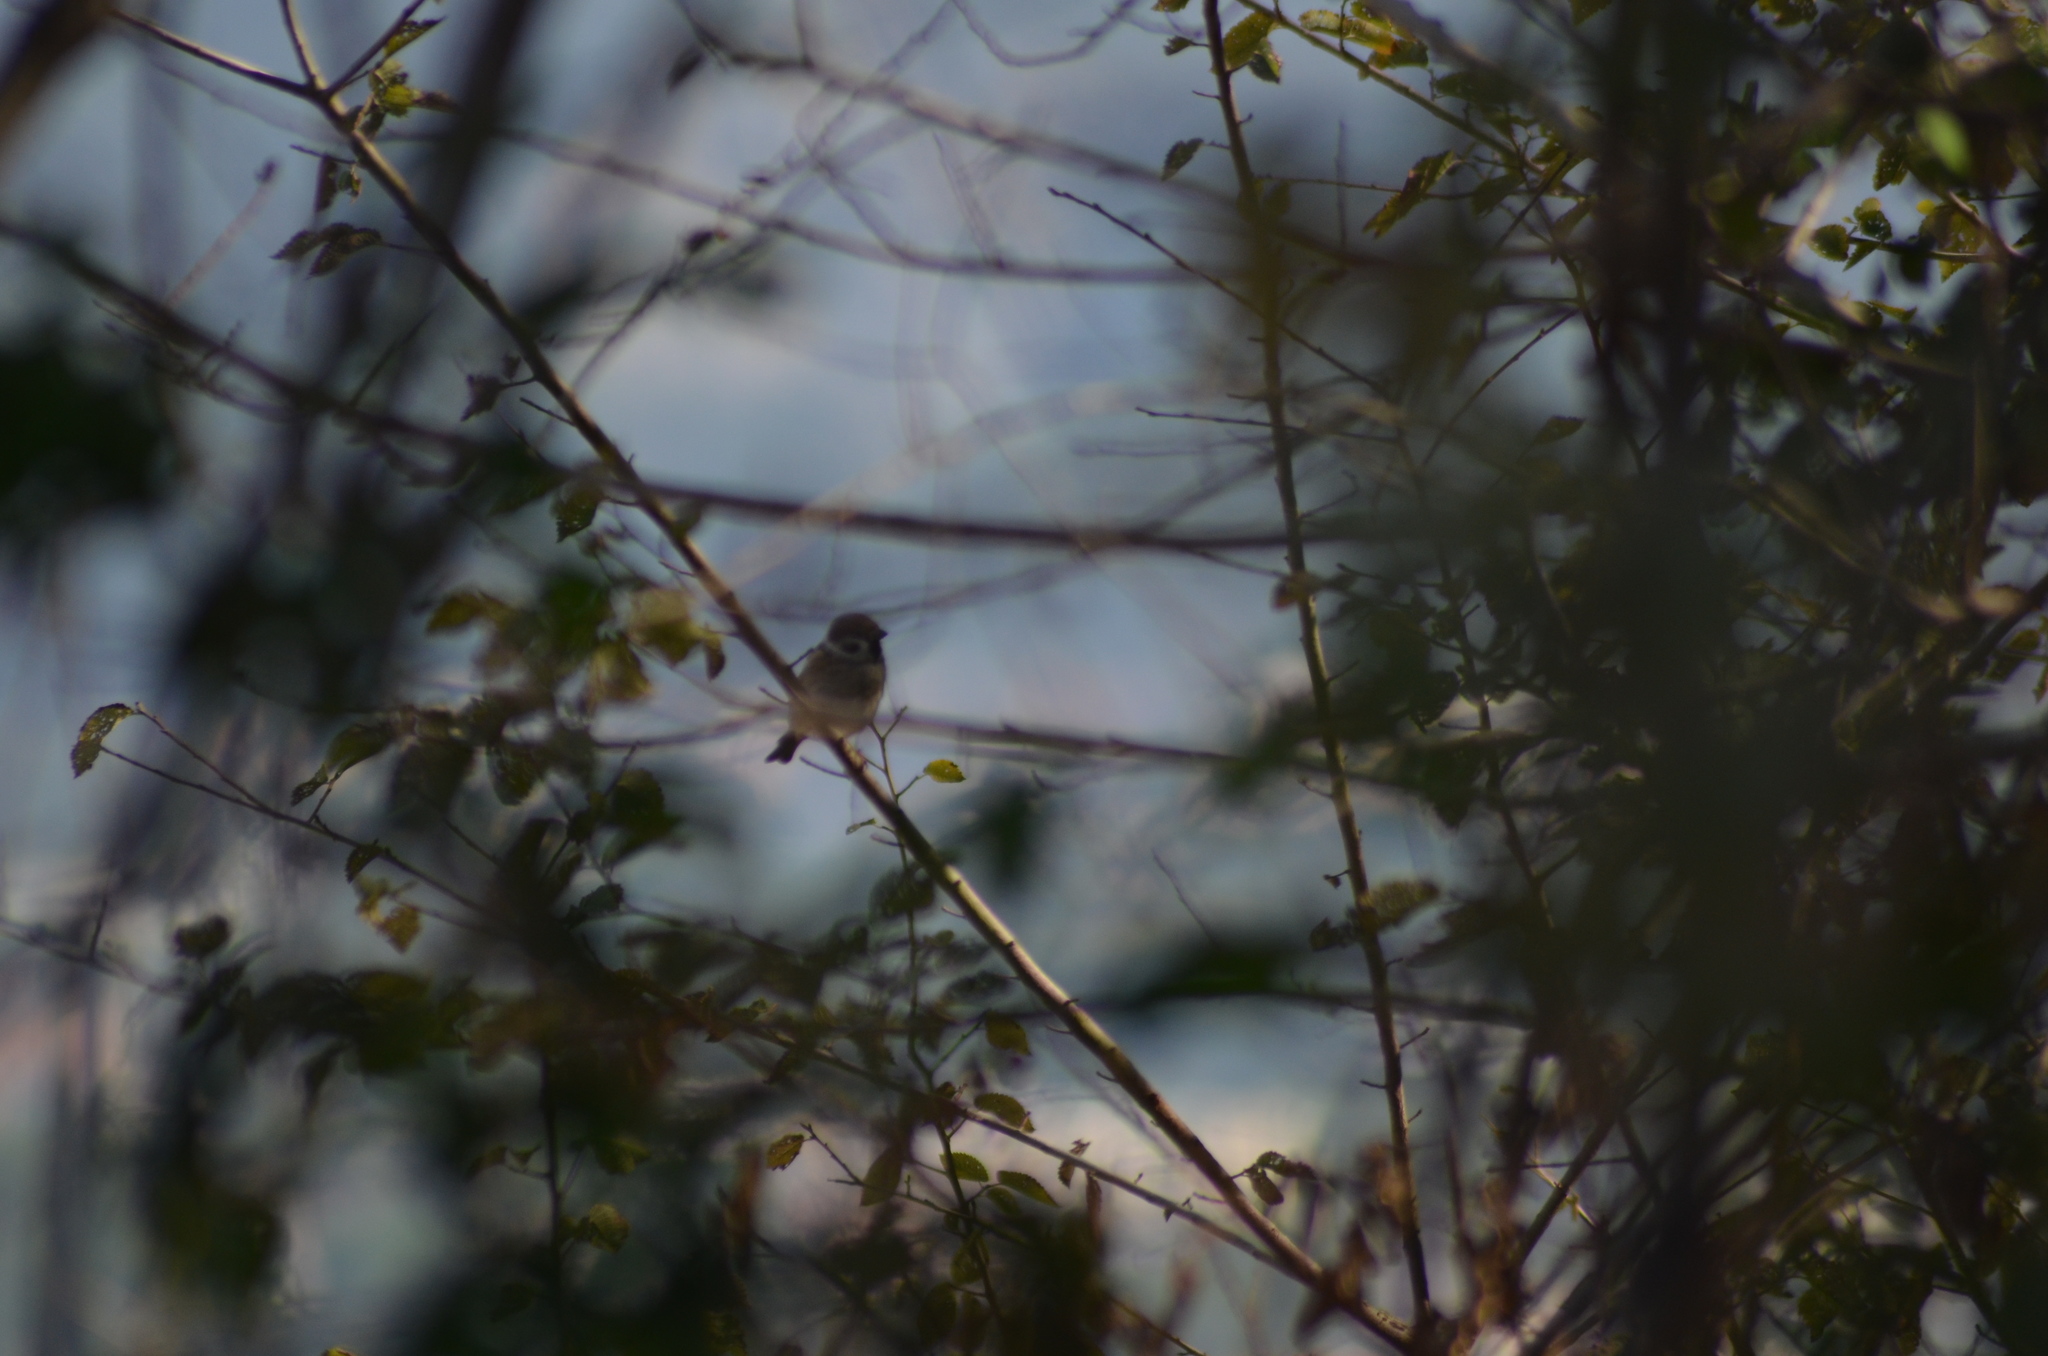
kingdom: Animalia
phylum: Chordata
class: Aves
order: Passeriformes
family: Passeridae
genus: Passer
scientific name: Passer montanus
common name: Eurasian tree sparrow
